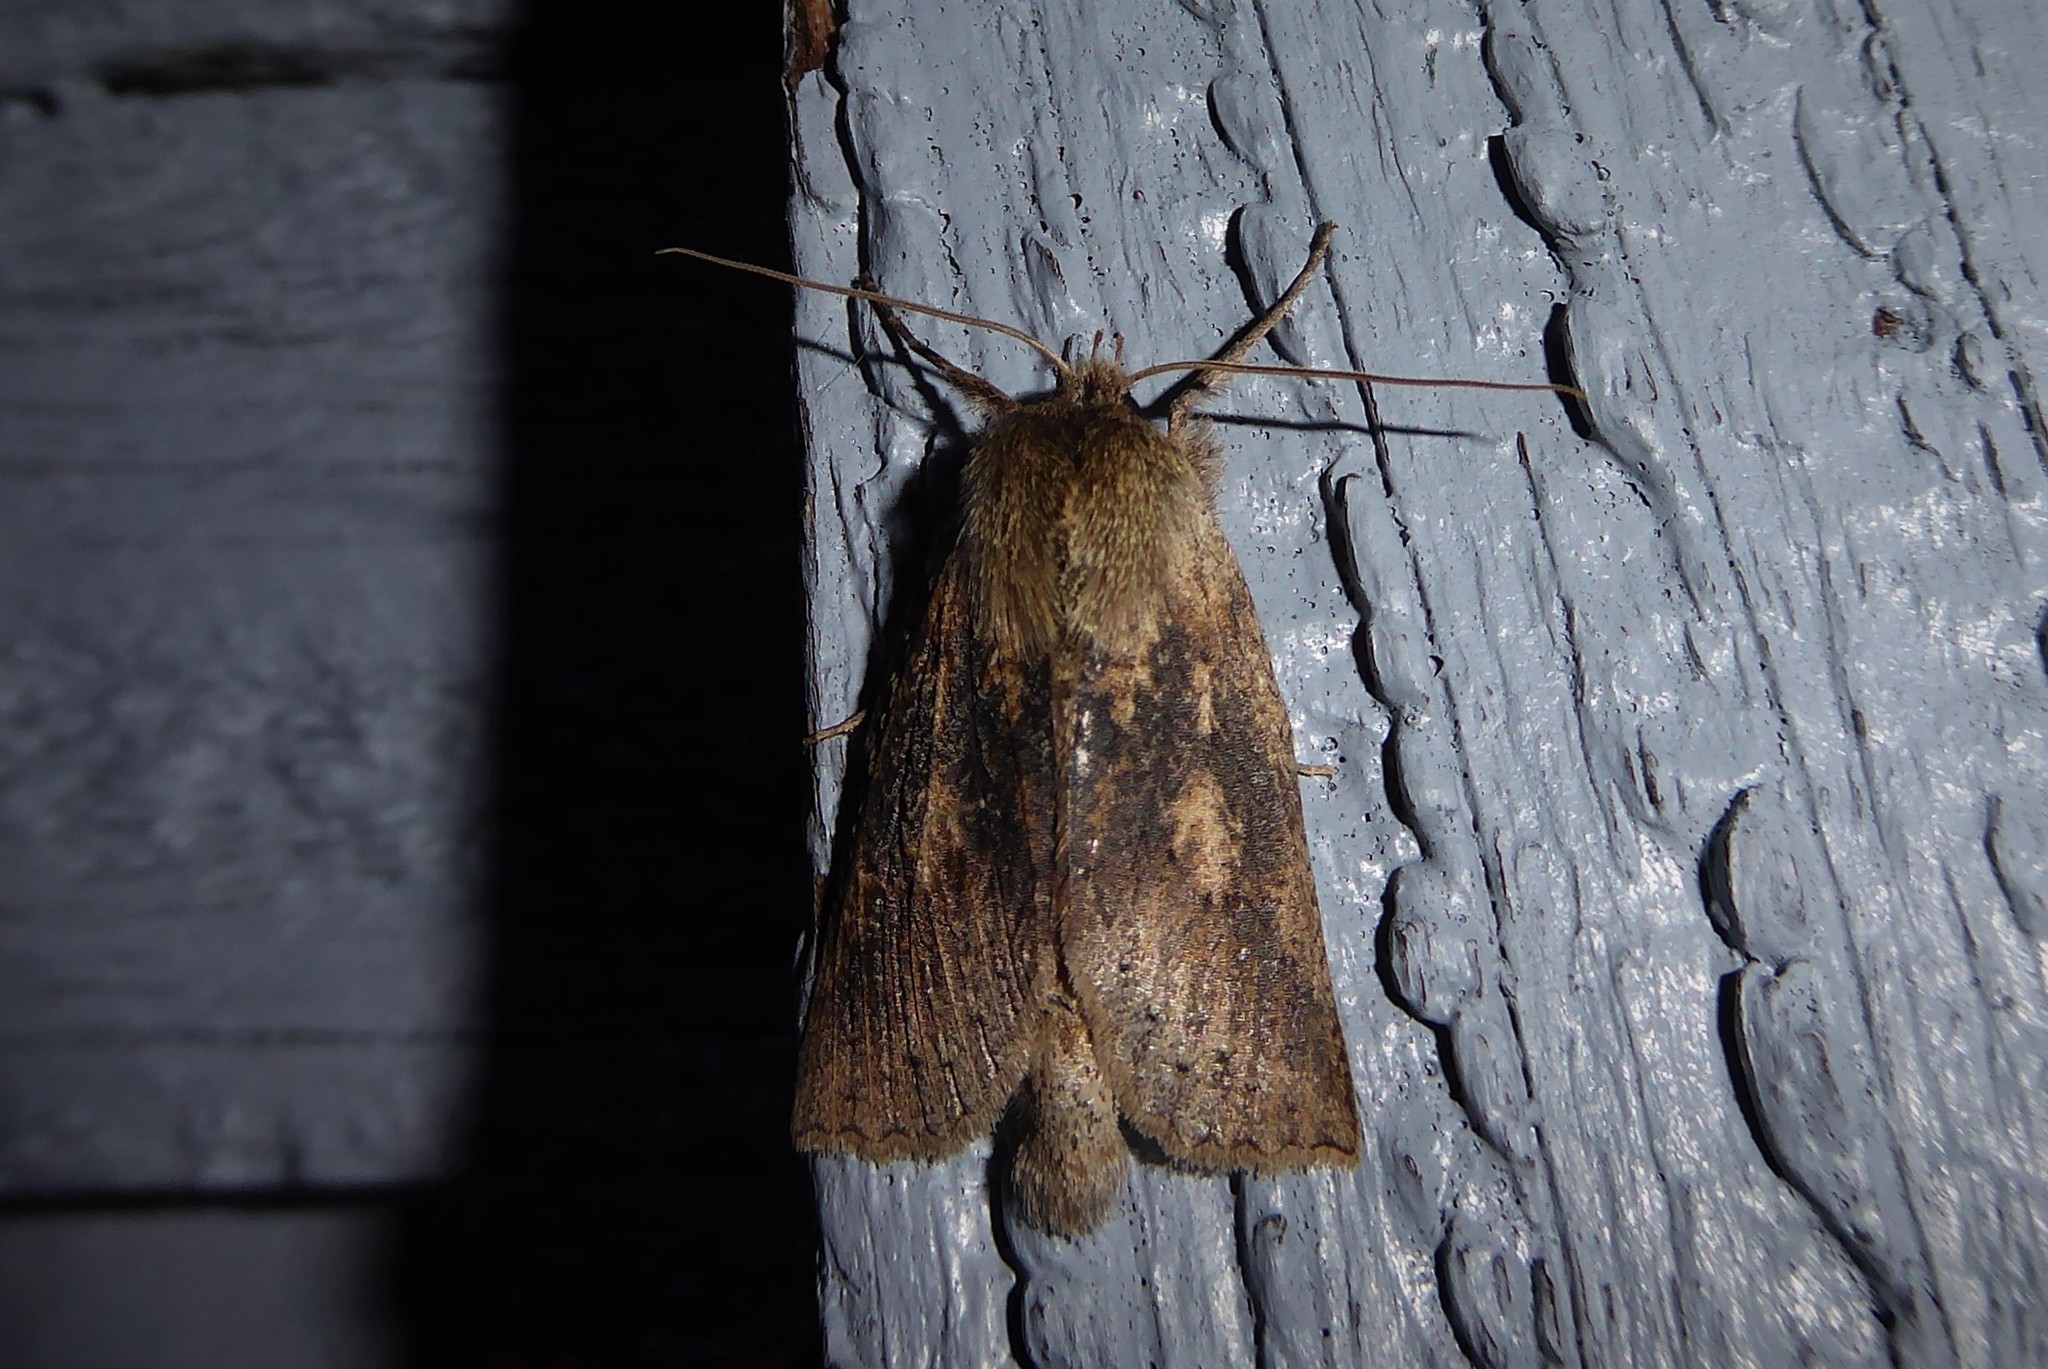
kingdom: Animalia
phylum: Arthropoda
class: Insecta
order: Lepidoptera
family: Geometridae
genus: Declana
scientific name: Declana leptomera
